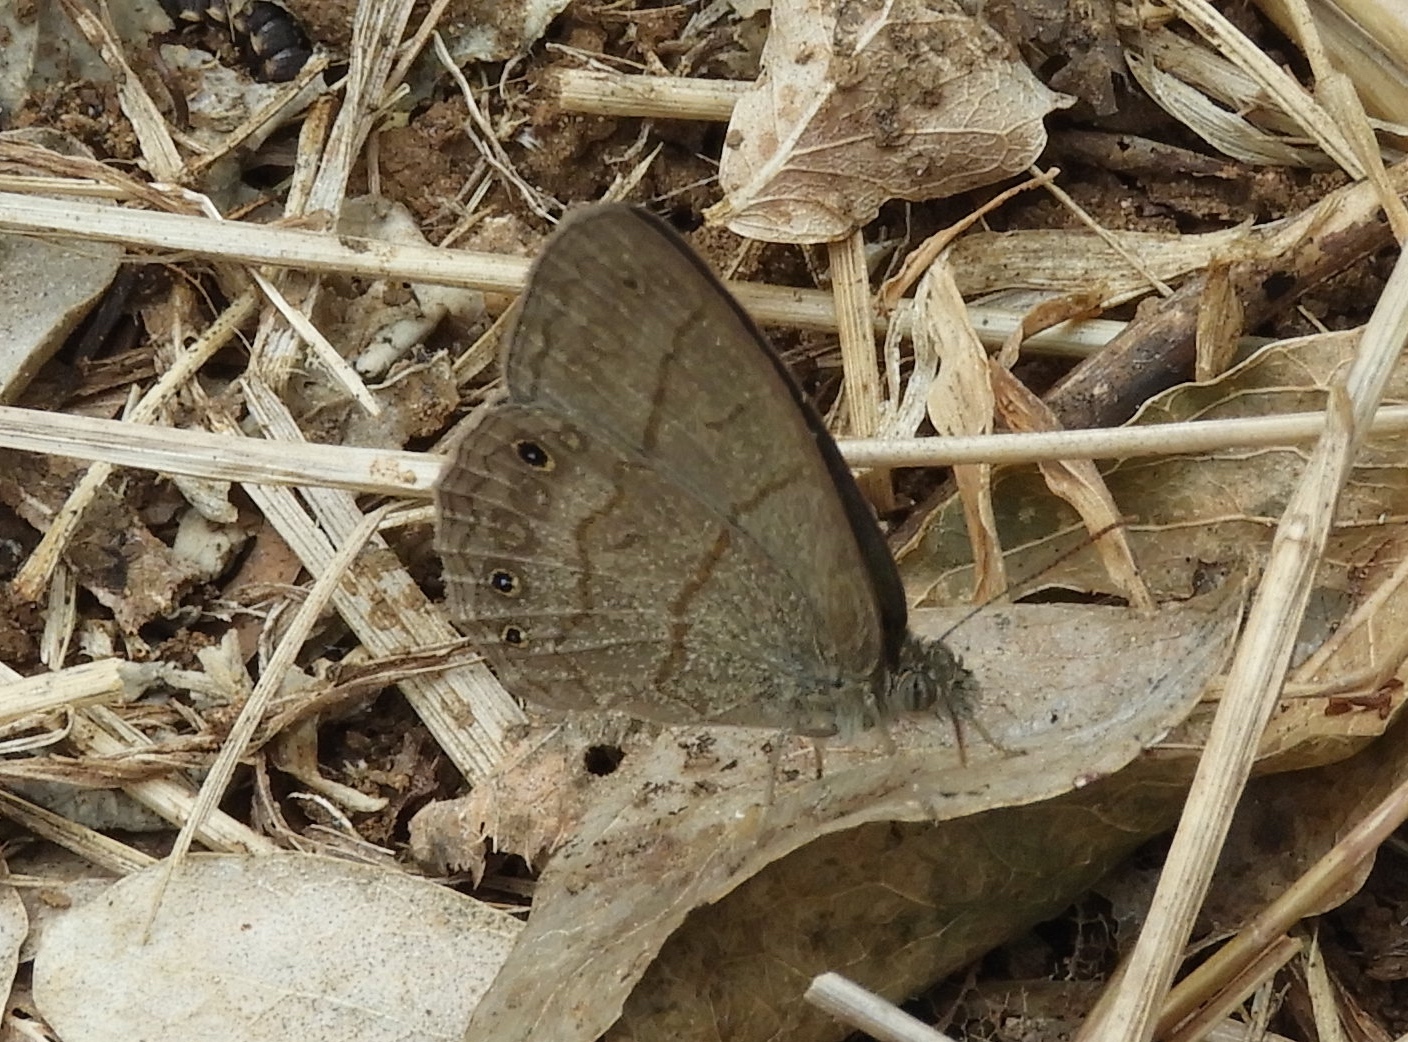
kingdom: Animalia
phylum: Arthropoda
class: Insecta
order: Lepidoptera
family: Nymphalidae
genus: Hermeuptychia
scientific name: Hermeuptychia hermes
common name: Hermes satyr
